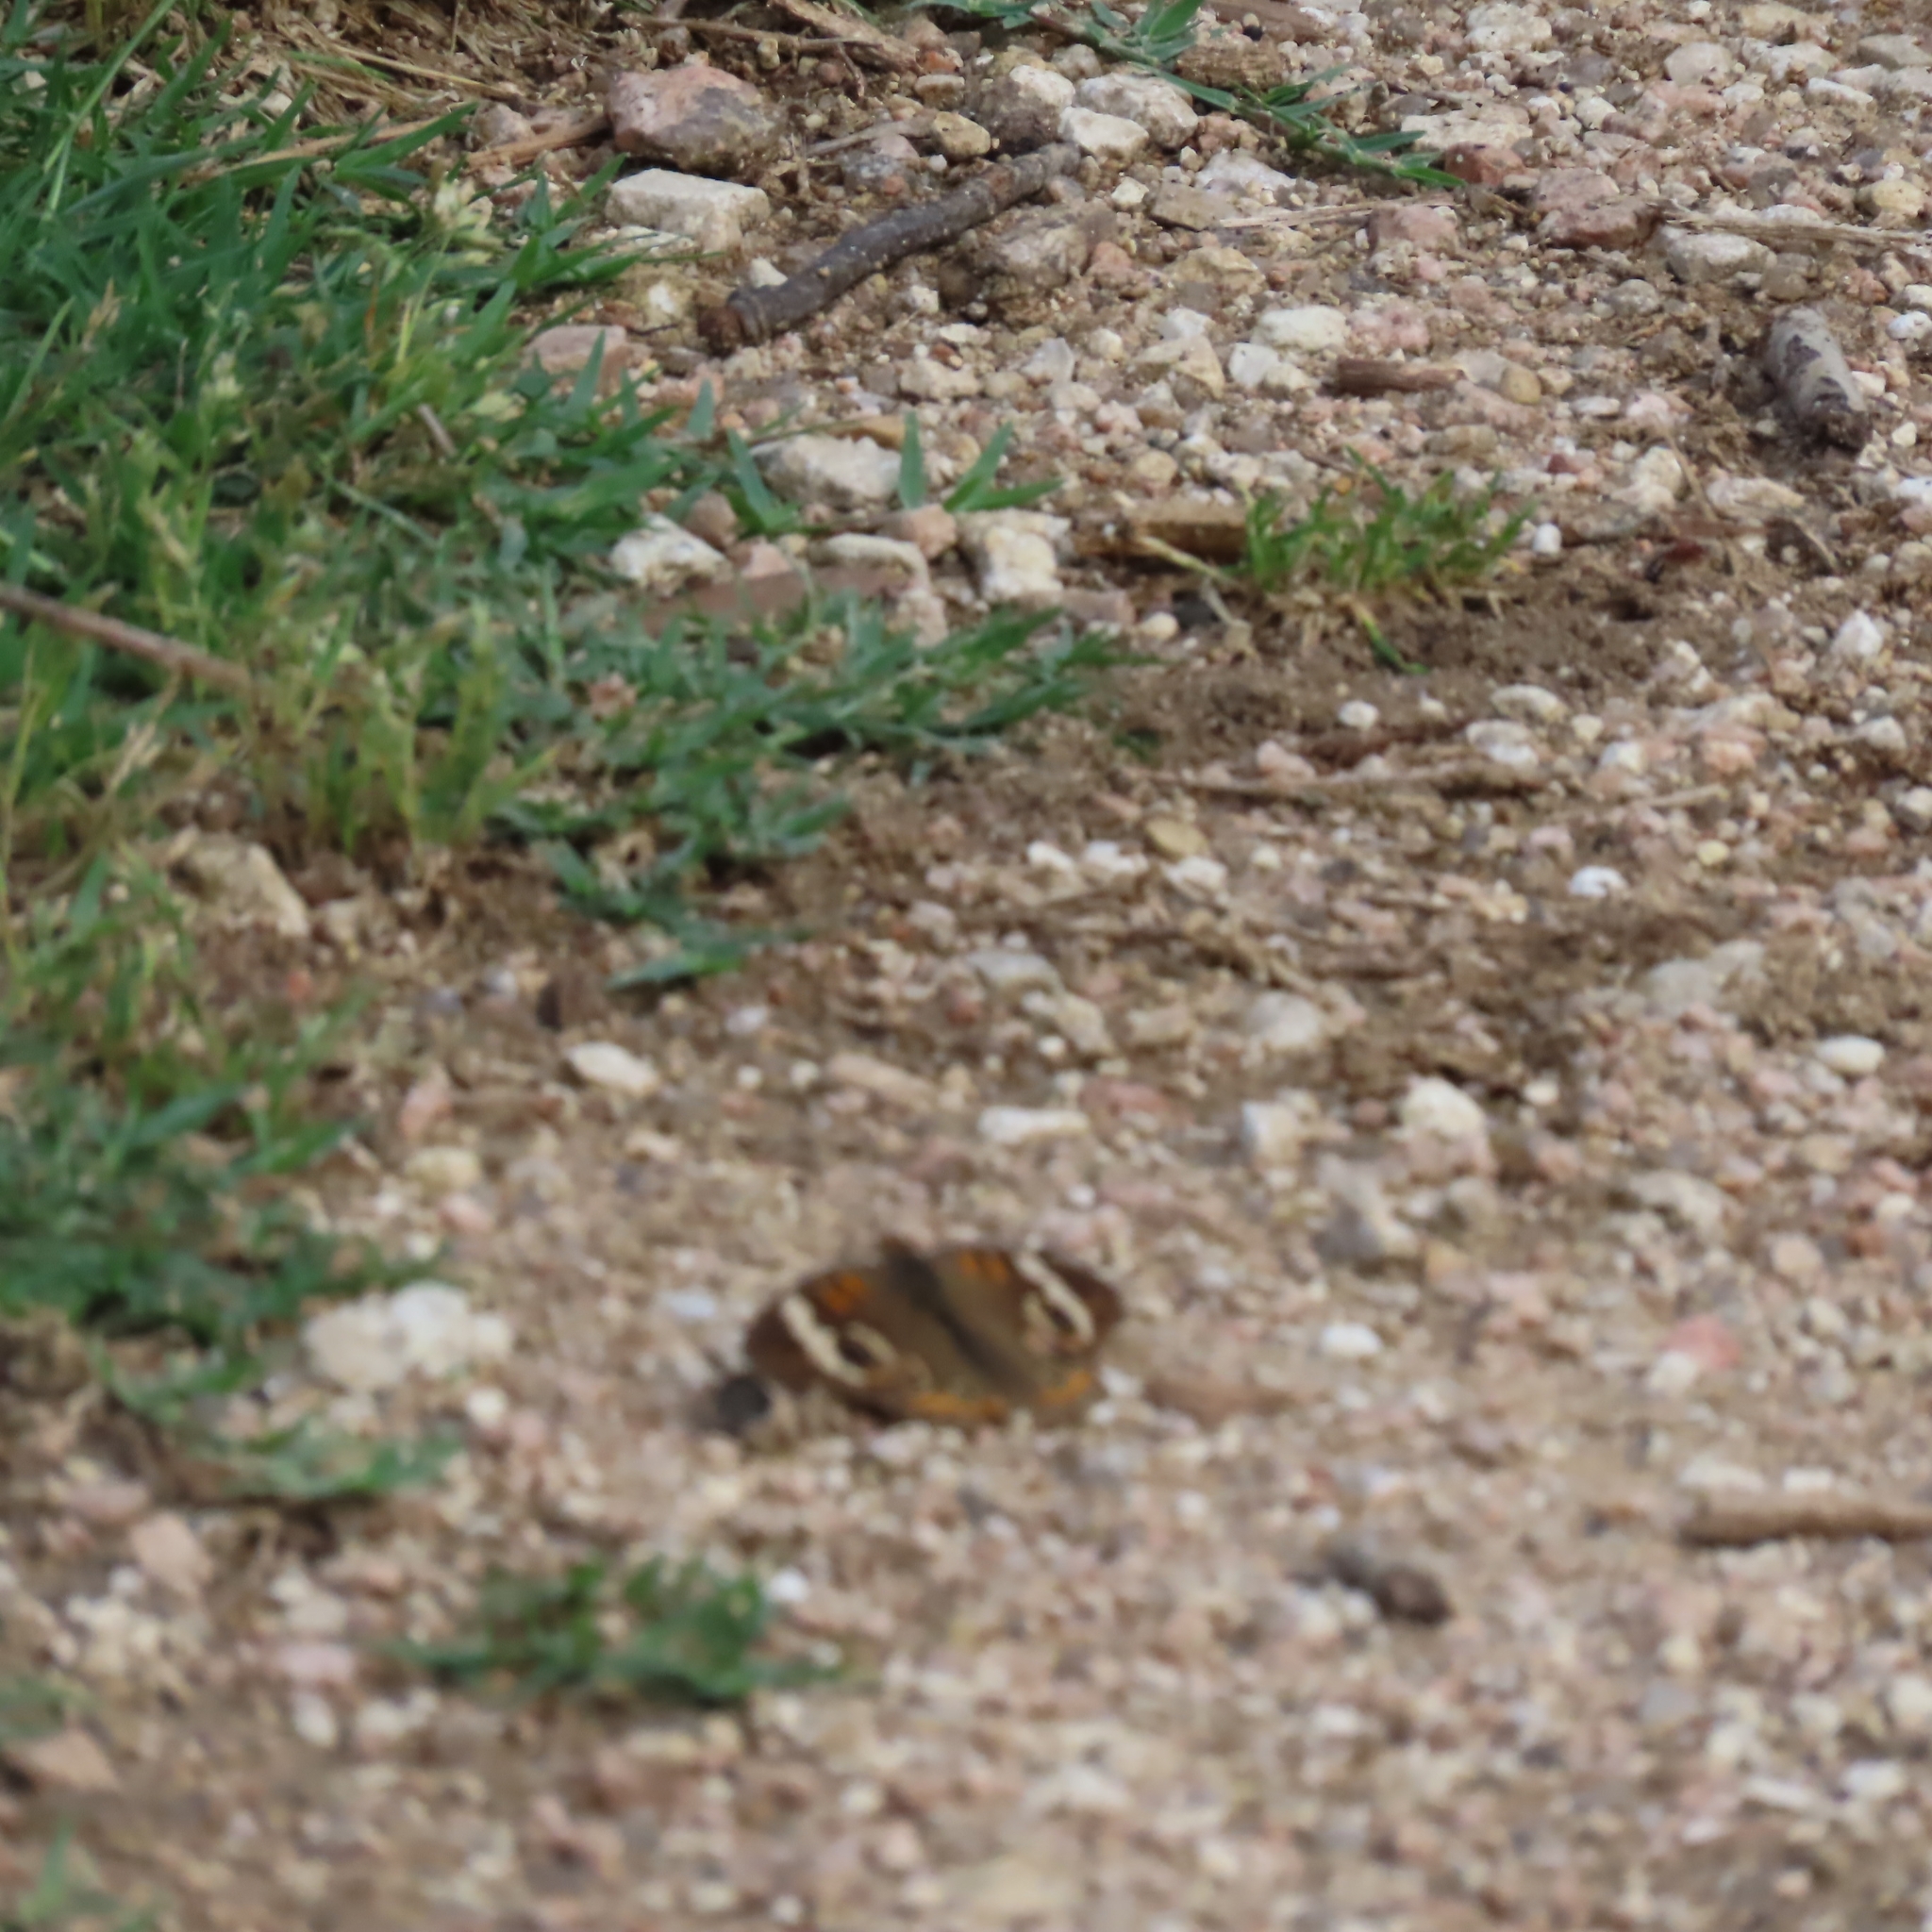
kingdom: Animalia
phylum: Arthropoda
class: Insecta
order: Lepidoptera
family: Nymphalidae
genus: Junonia
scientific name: Junonia coenia
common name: Common buckeye
